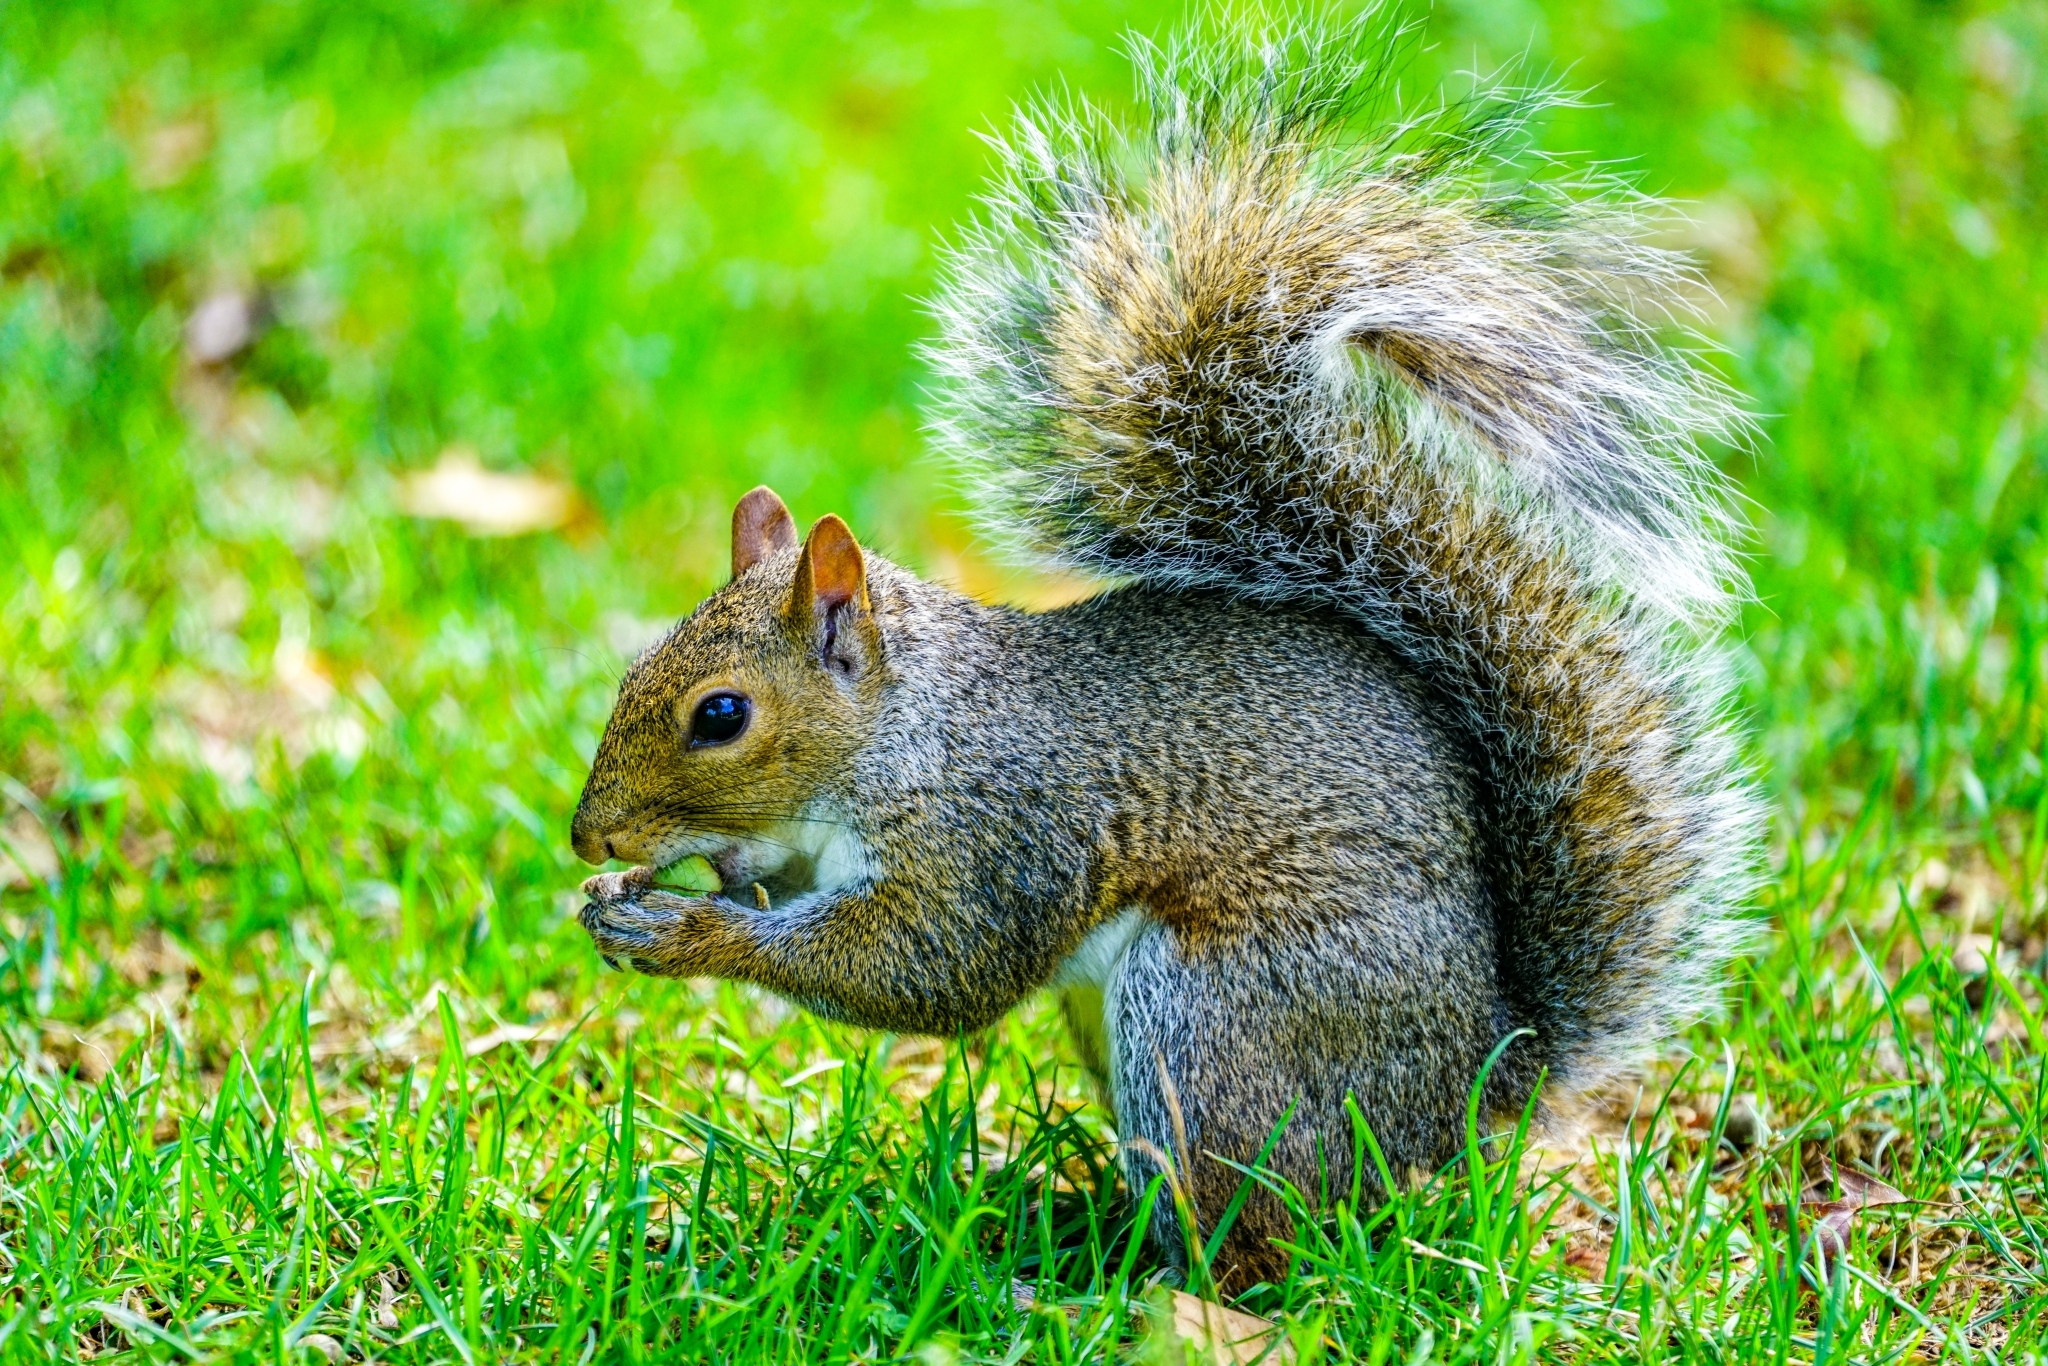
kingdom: Animalia
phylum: Chordata
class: Mammalia
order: Rodentia
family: Sciuridae
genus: Sciurus
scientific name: Sciurus carolinensis
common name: Eastern gray squirrel
